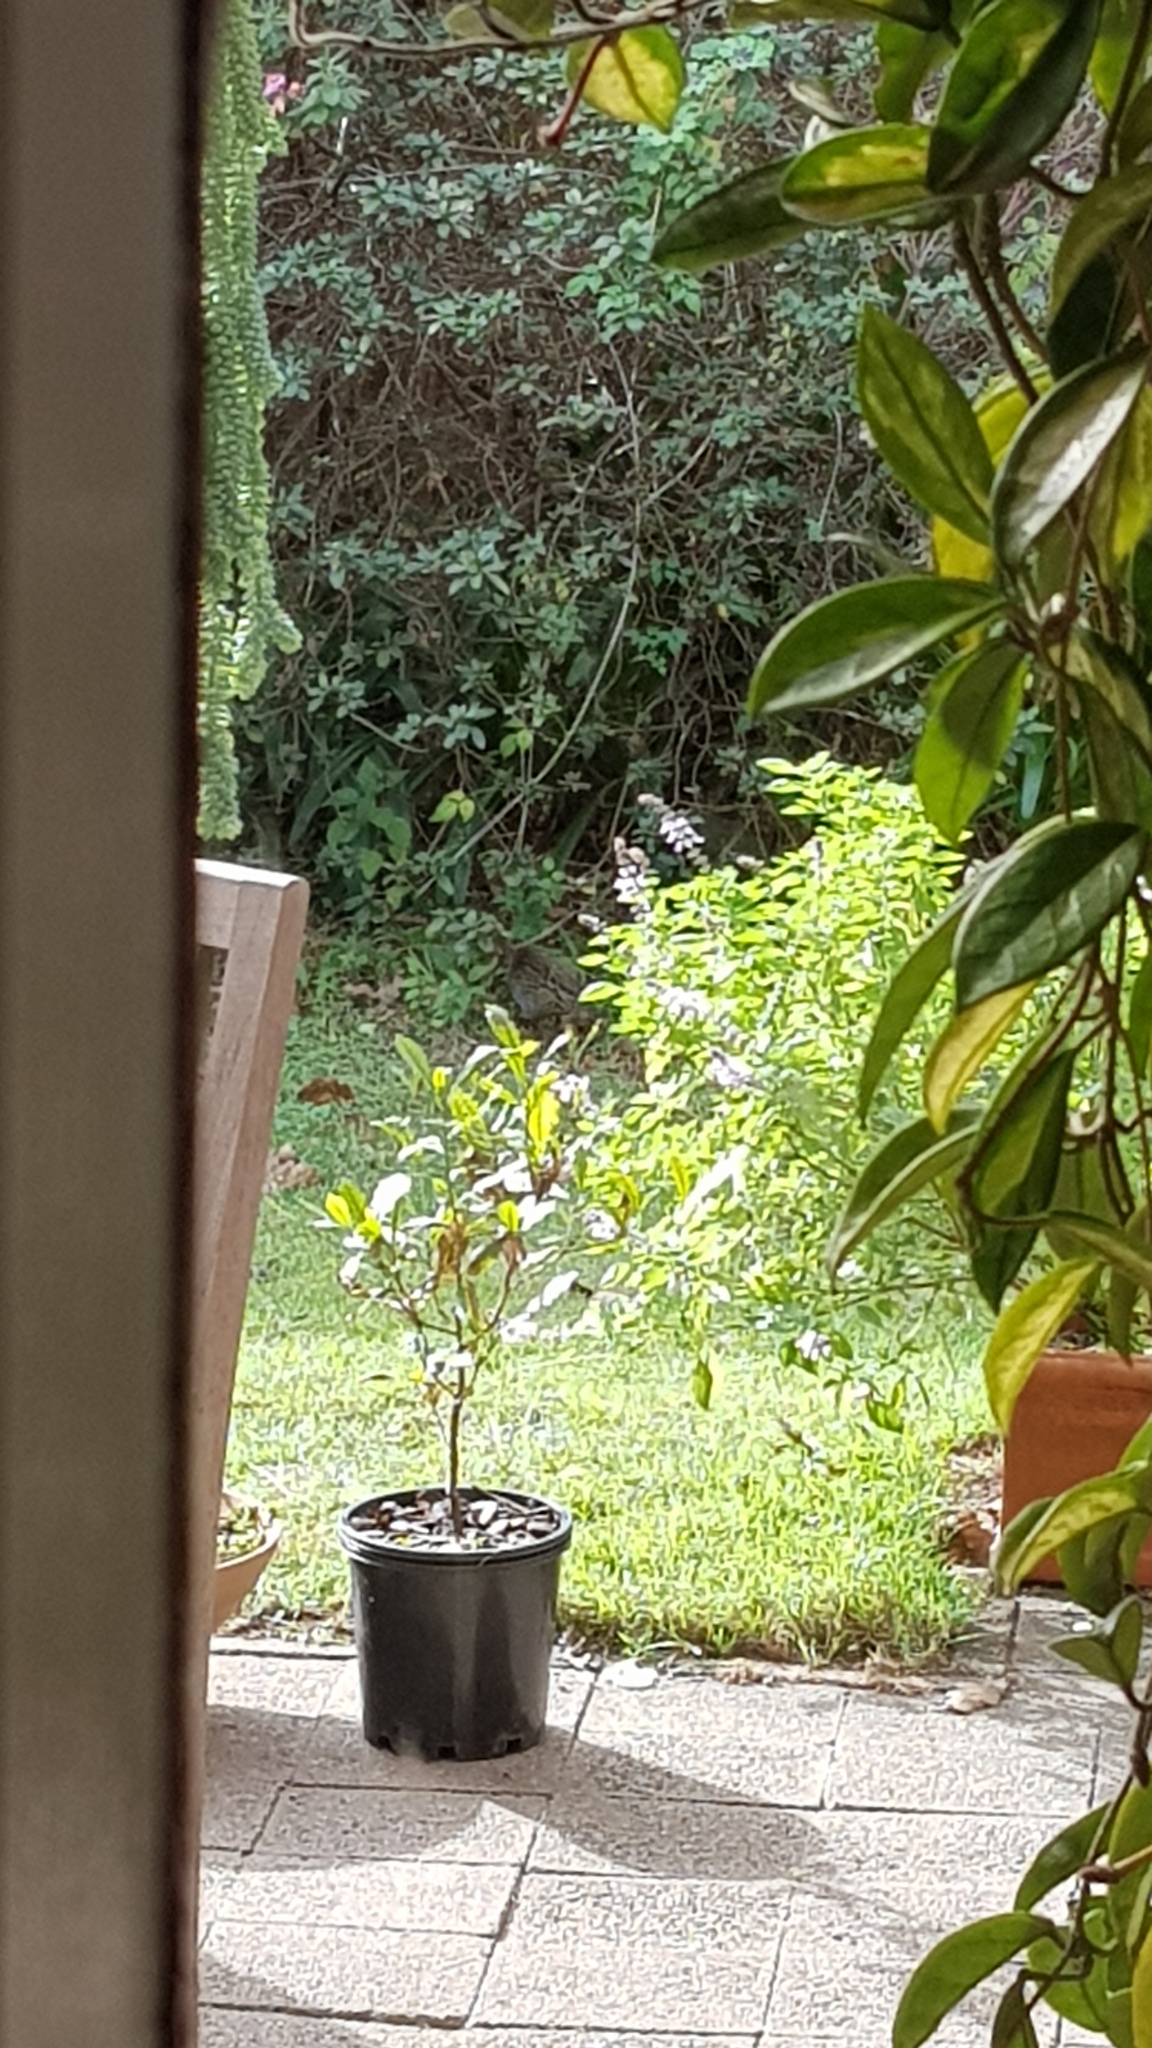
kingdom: Animalia
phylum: Chordata
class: Aves
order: Gruiformes
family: Rallidae
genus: Gallirallus
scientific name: Gallirallus philippensis
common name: Buff-banded rail
